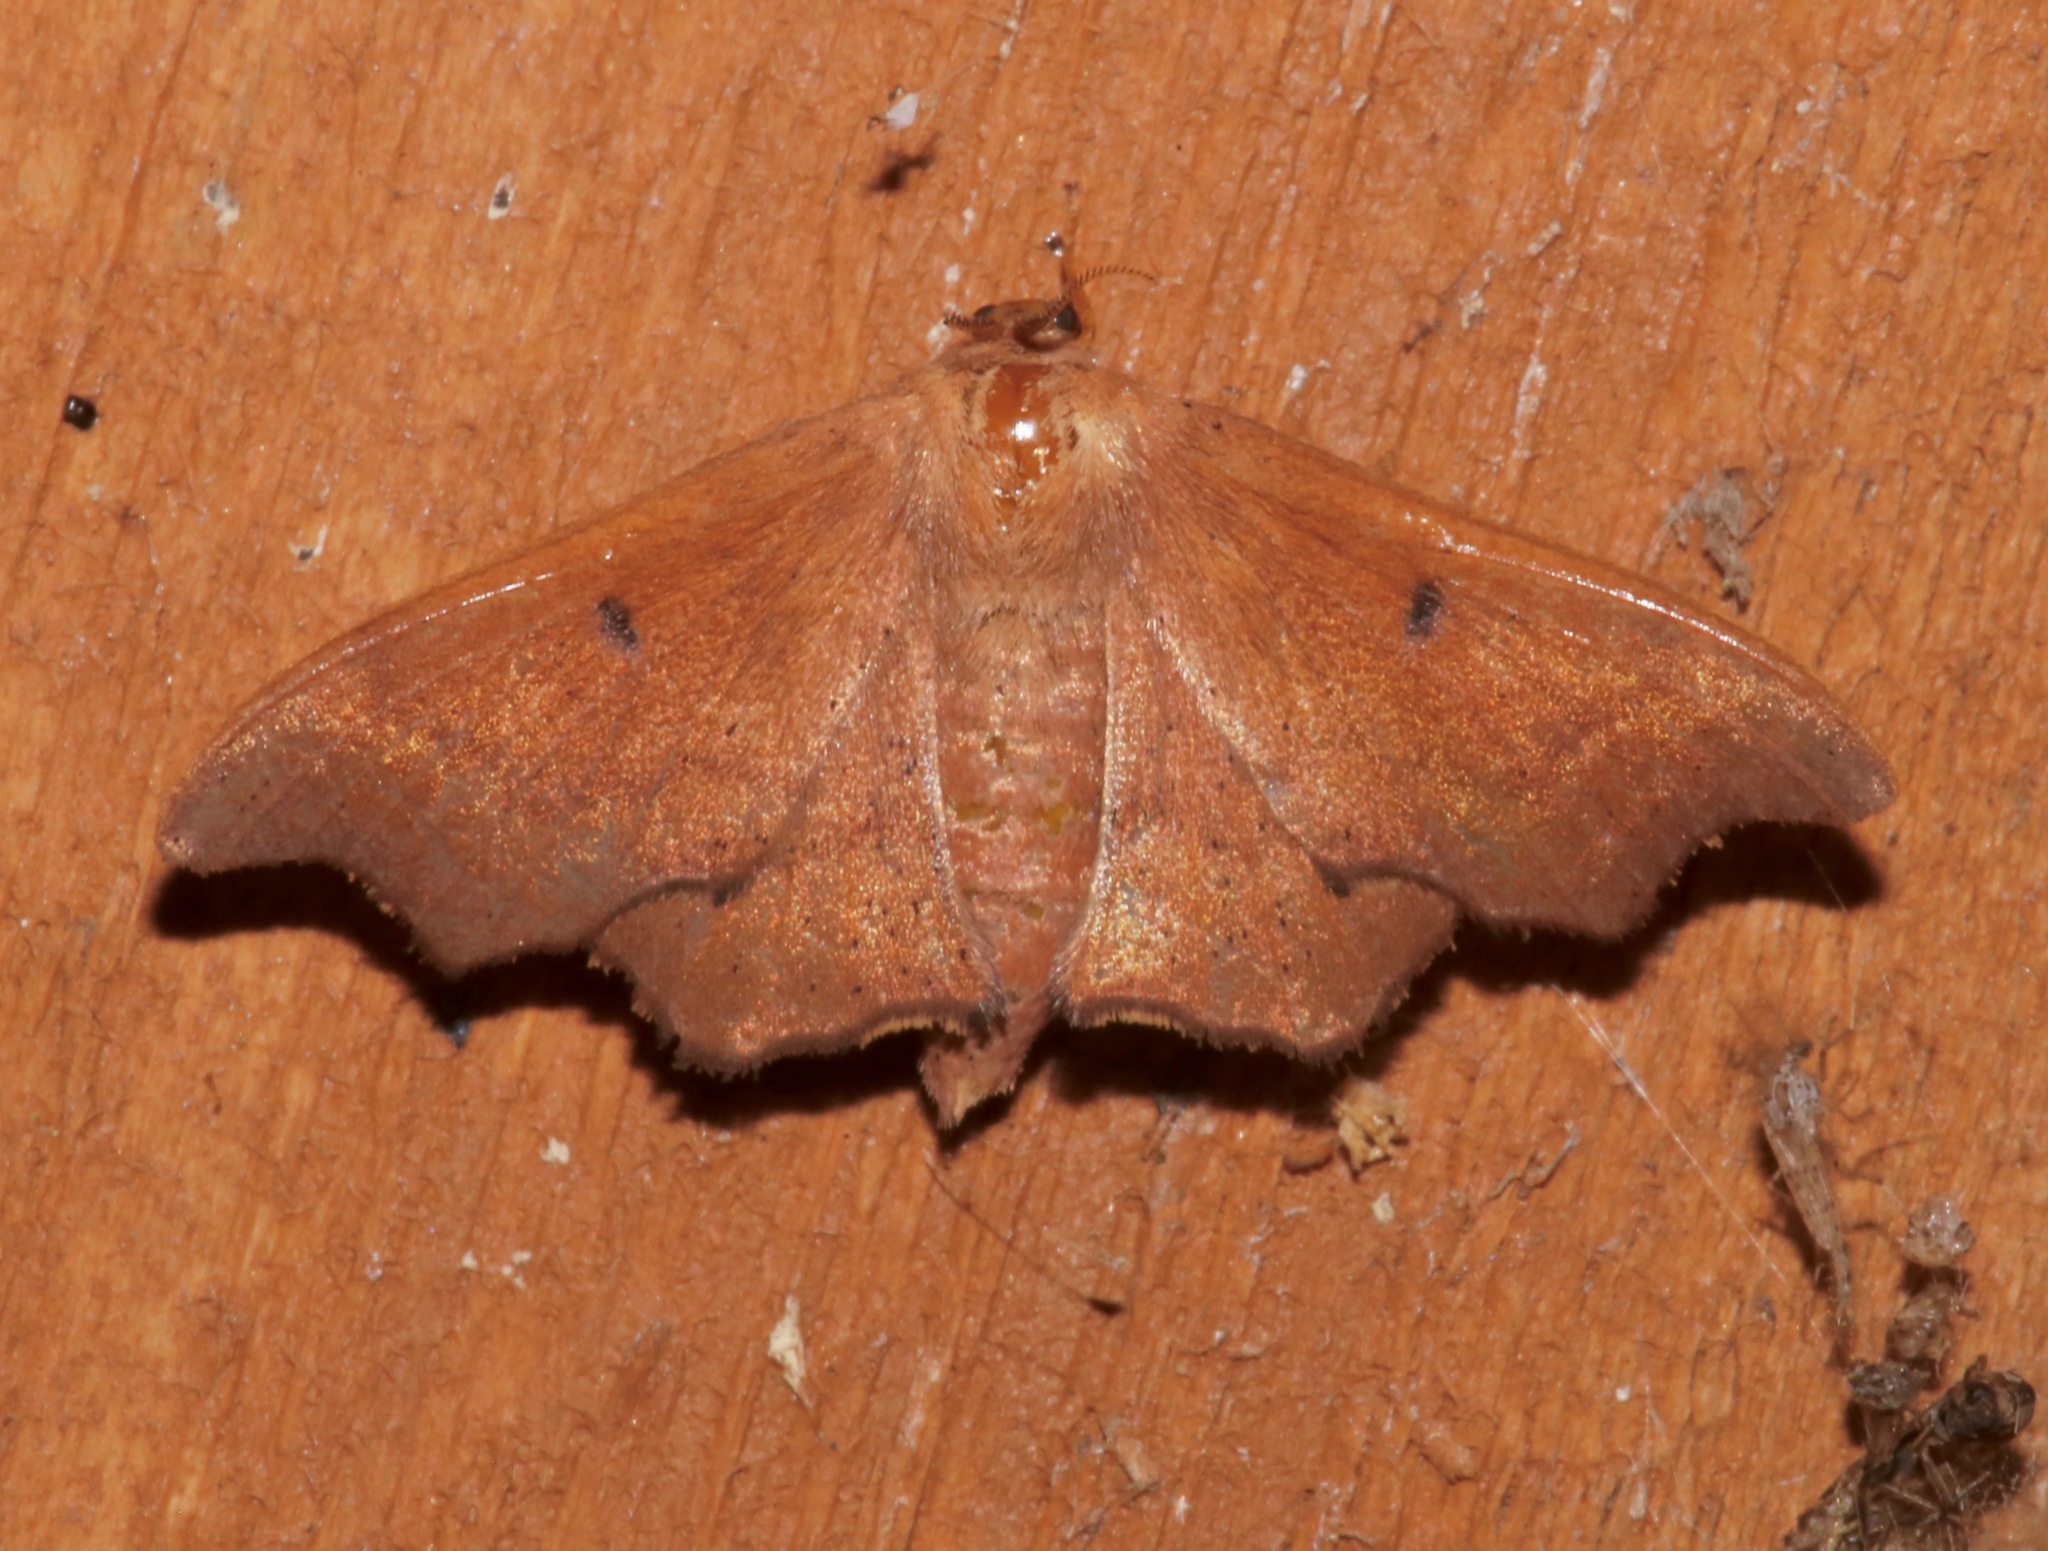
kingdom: Animalia
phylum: Arthropoda
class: Insecta
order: Lepidoptera
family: Mimallonidae
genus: Lacosoma
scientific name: Lacosoma chiridota
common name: Scalloped sack-bearer moth
